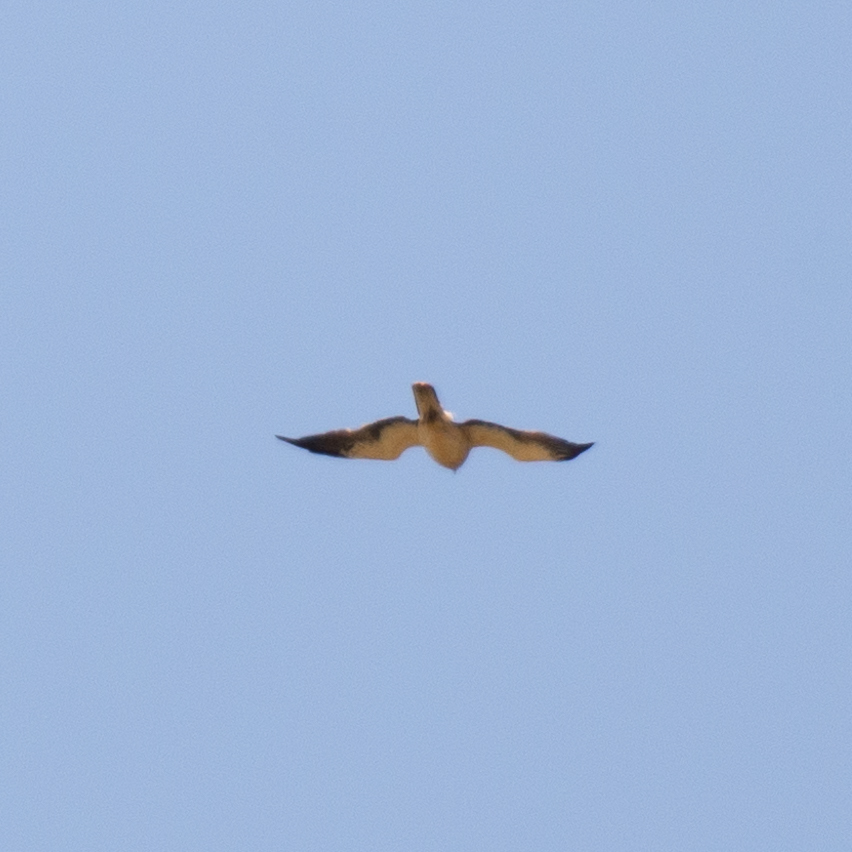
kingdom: Animalia
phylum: Chordata
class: Aves
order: Accipitriformes
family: Accipitridae
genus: Hieraaetus
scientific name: Hieraaetus pennatus
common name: Booted eagle
